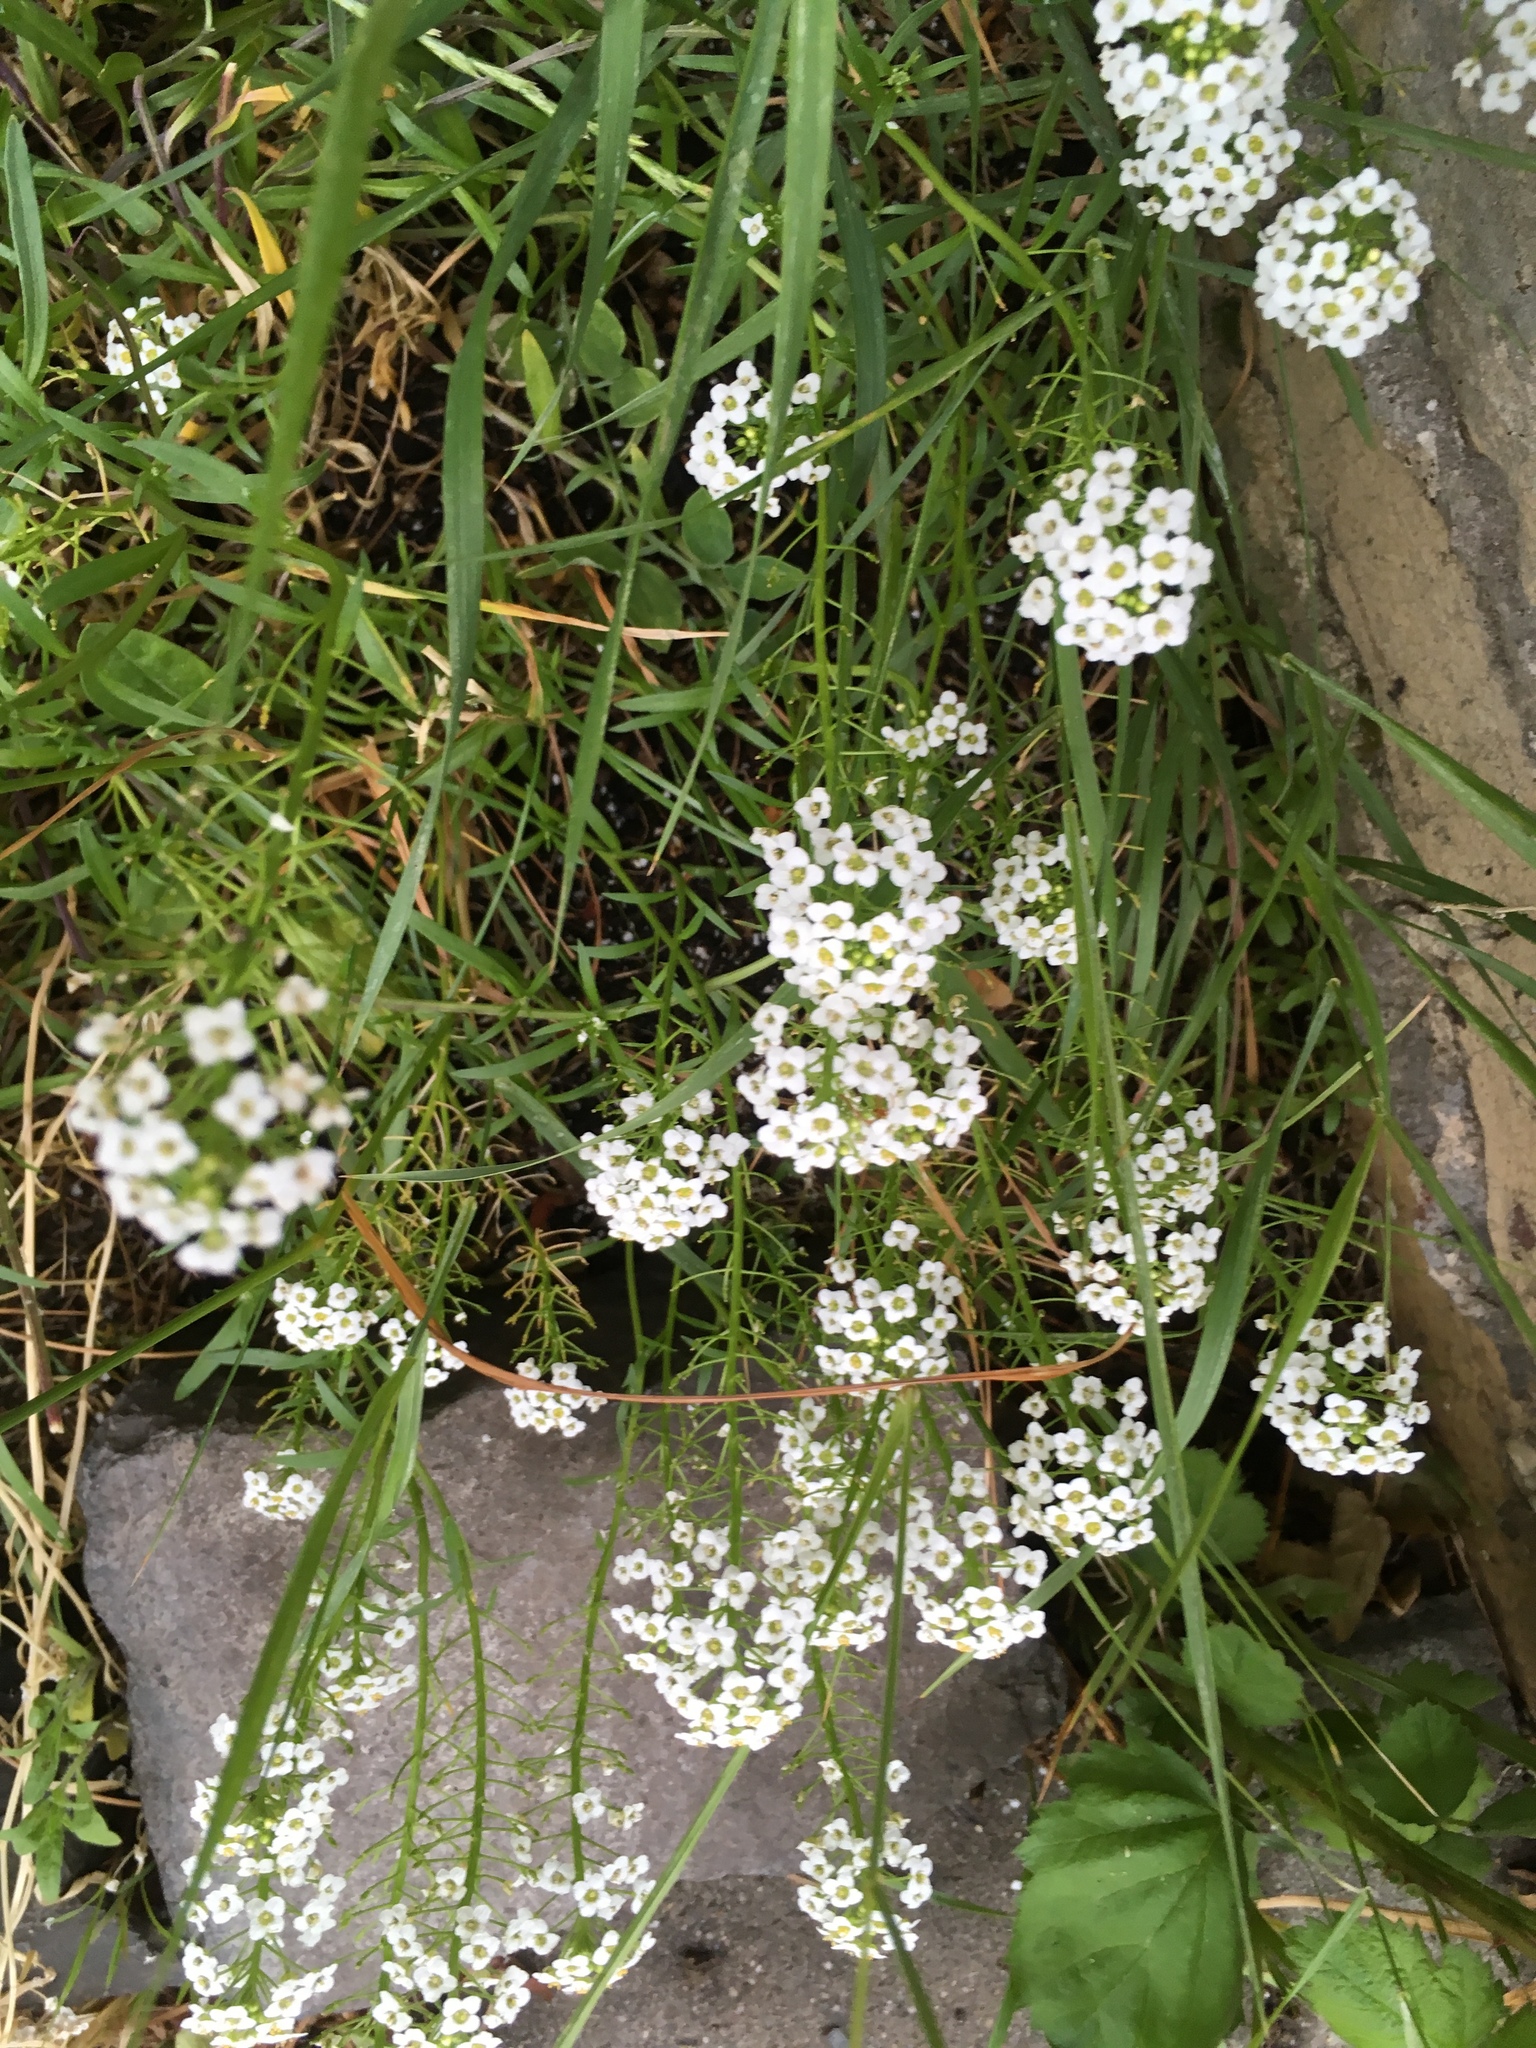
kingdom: Plantae
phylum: Tracheophyta
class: Magnoliopsida
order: Brassicales
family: Brassicaceae
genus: Lobularia
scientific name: Lobularia maritima
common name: Sweet alison
